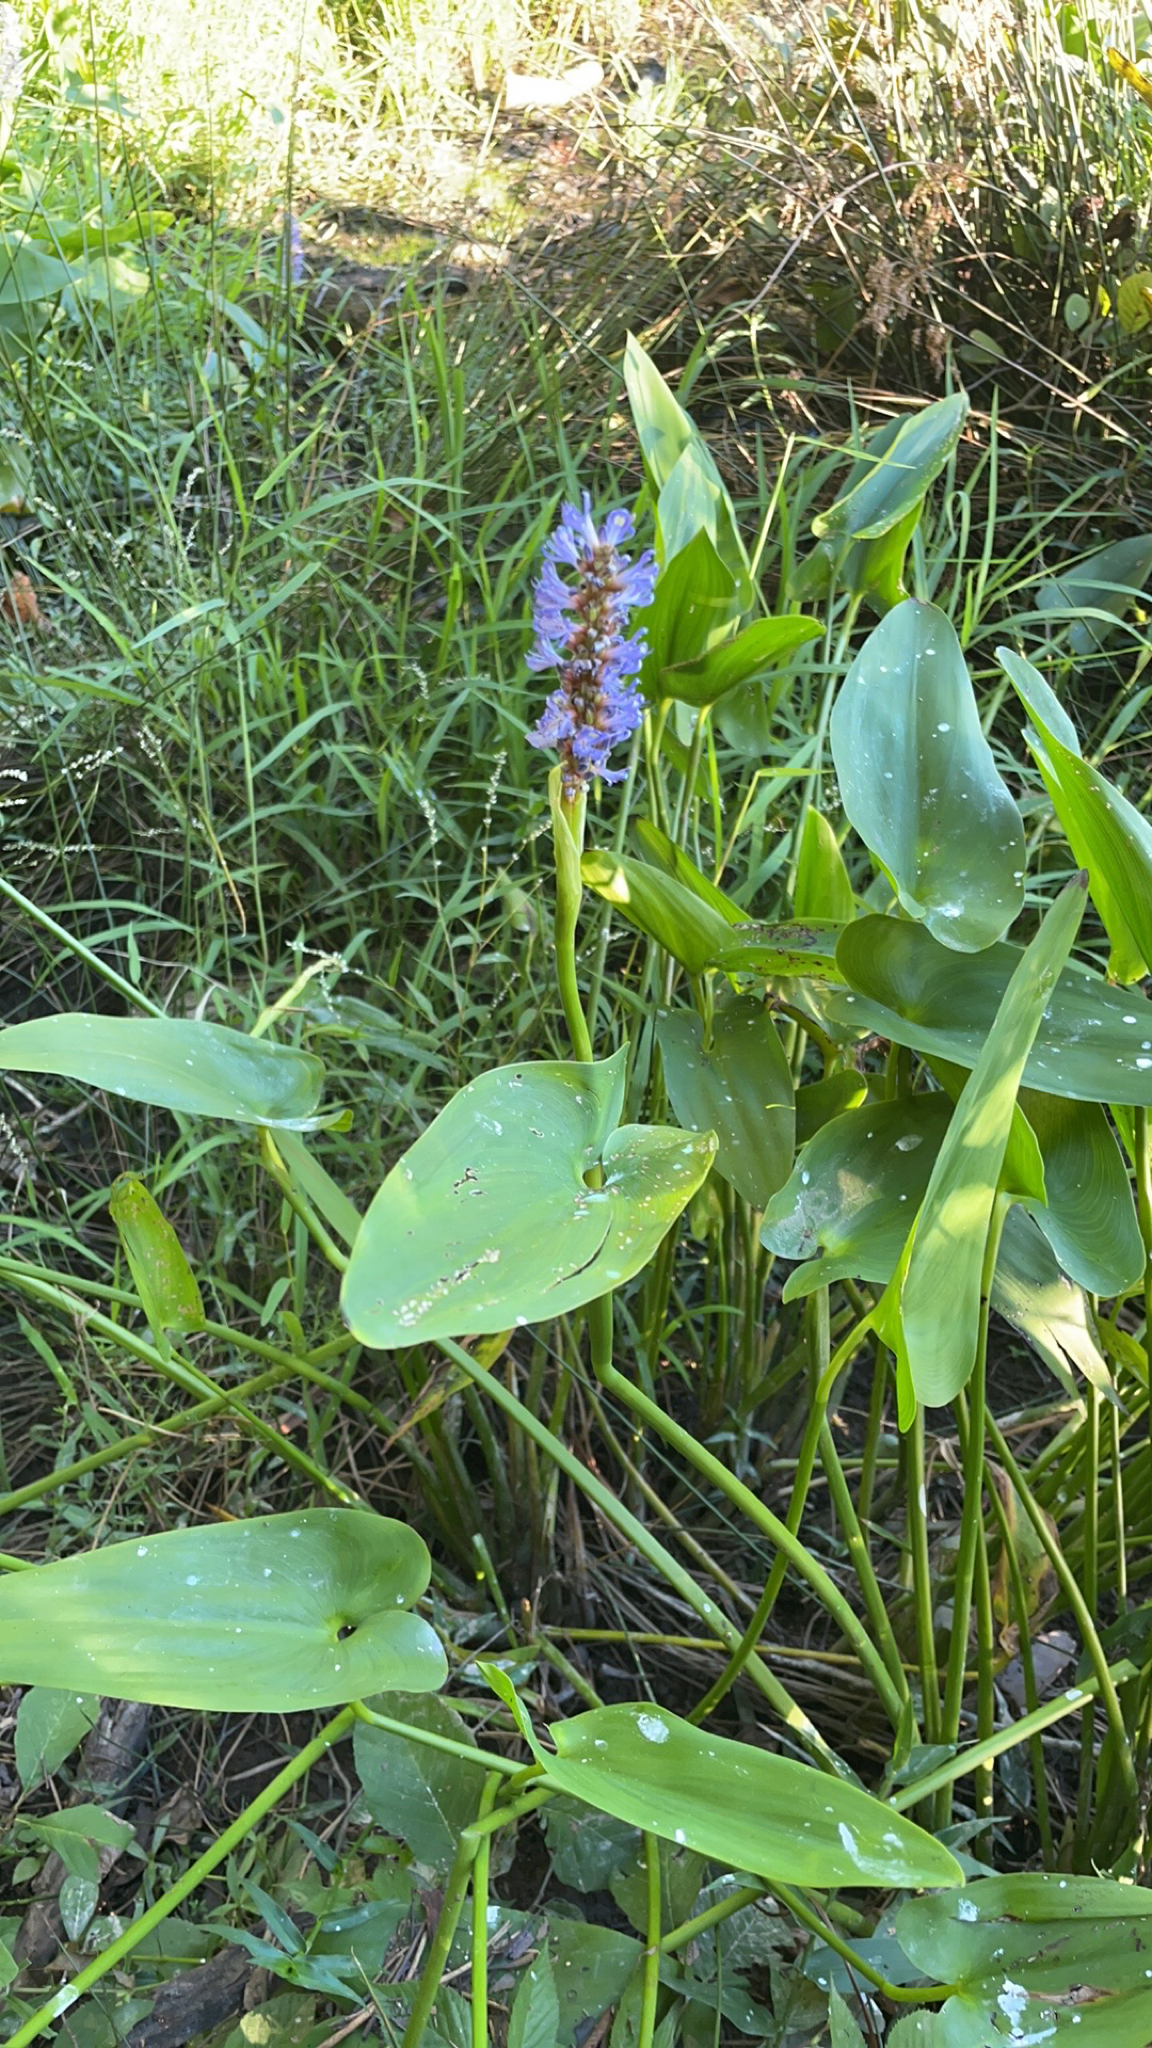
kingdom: Plantae
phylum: Tracheophyta
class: Liliopsida
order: Commelinales
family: Pontederiaceae
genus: Pontederia
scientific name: Pontederia cordata
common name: Pickerelweed
